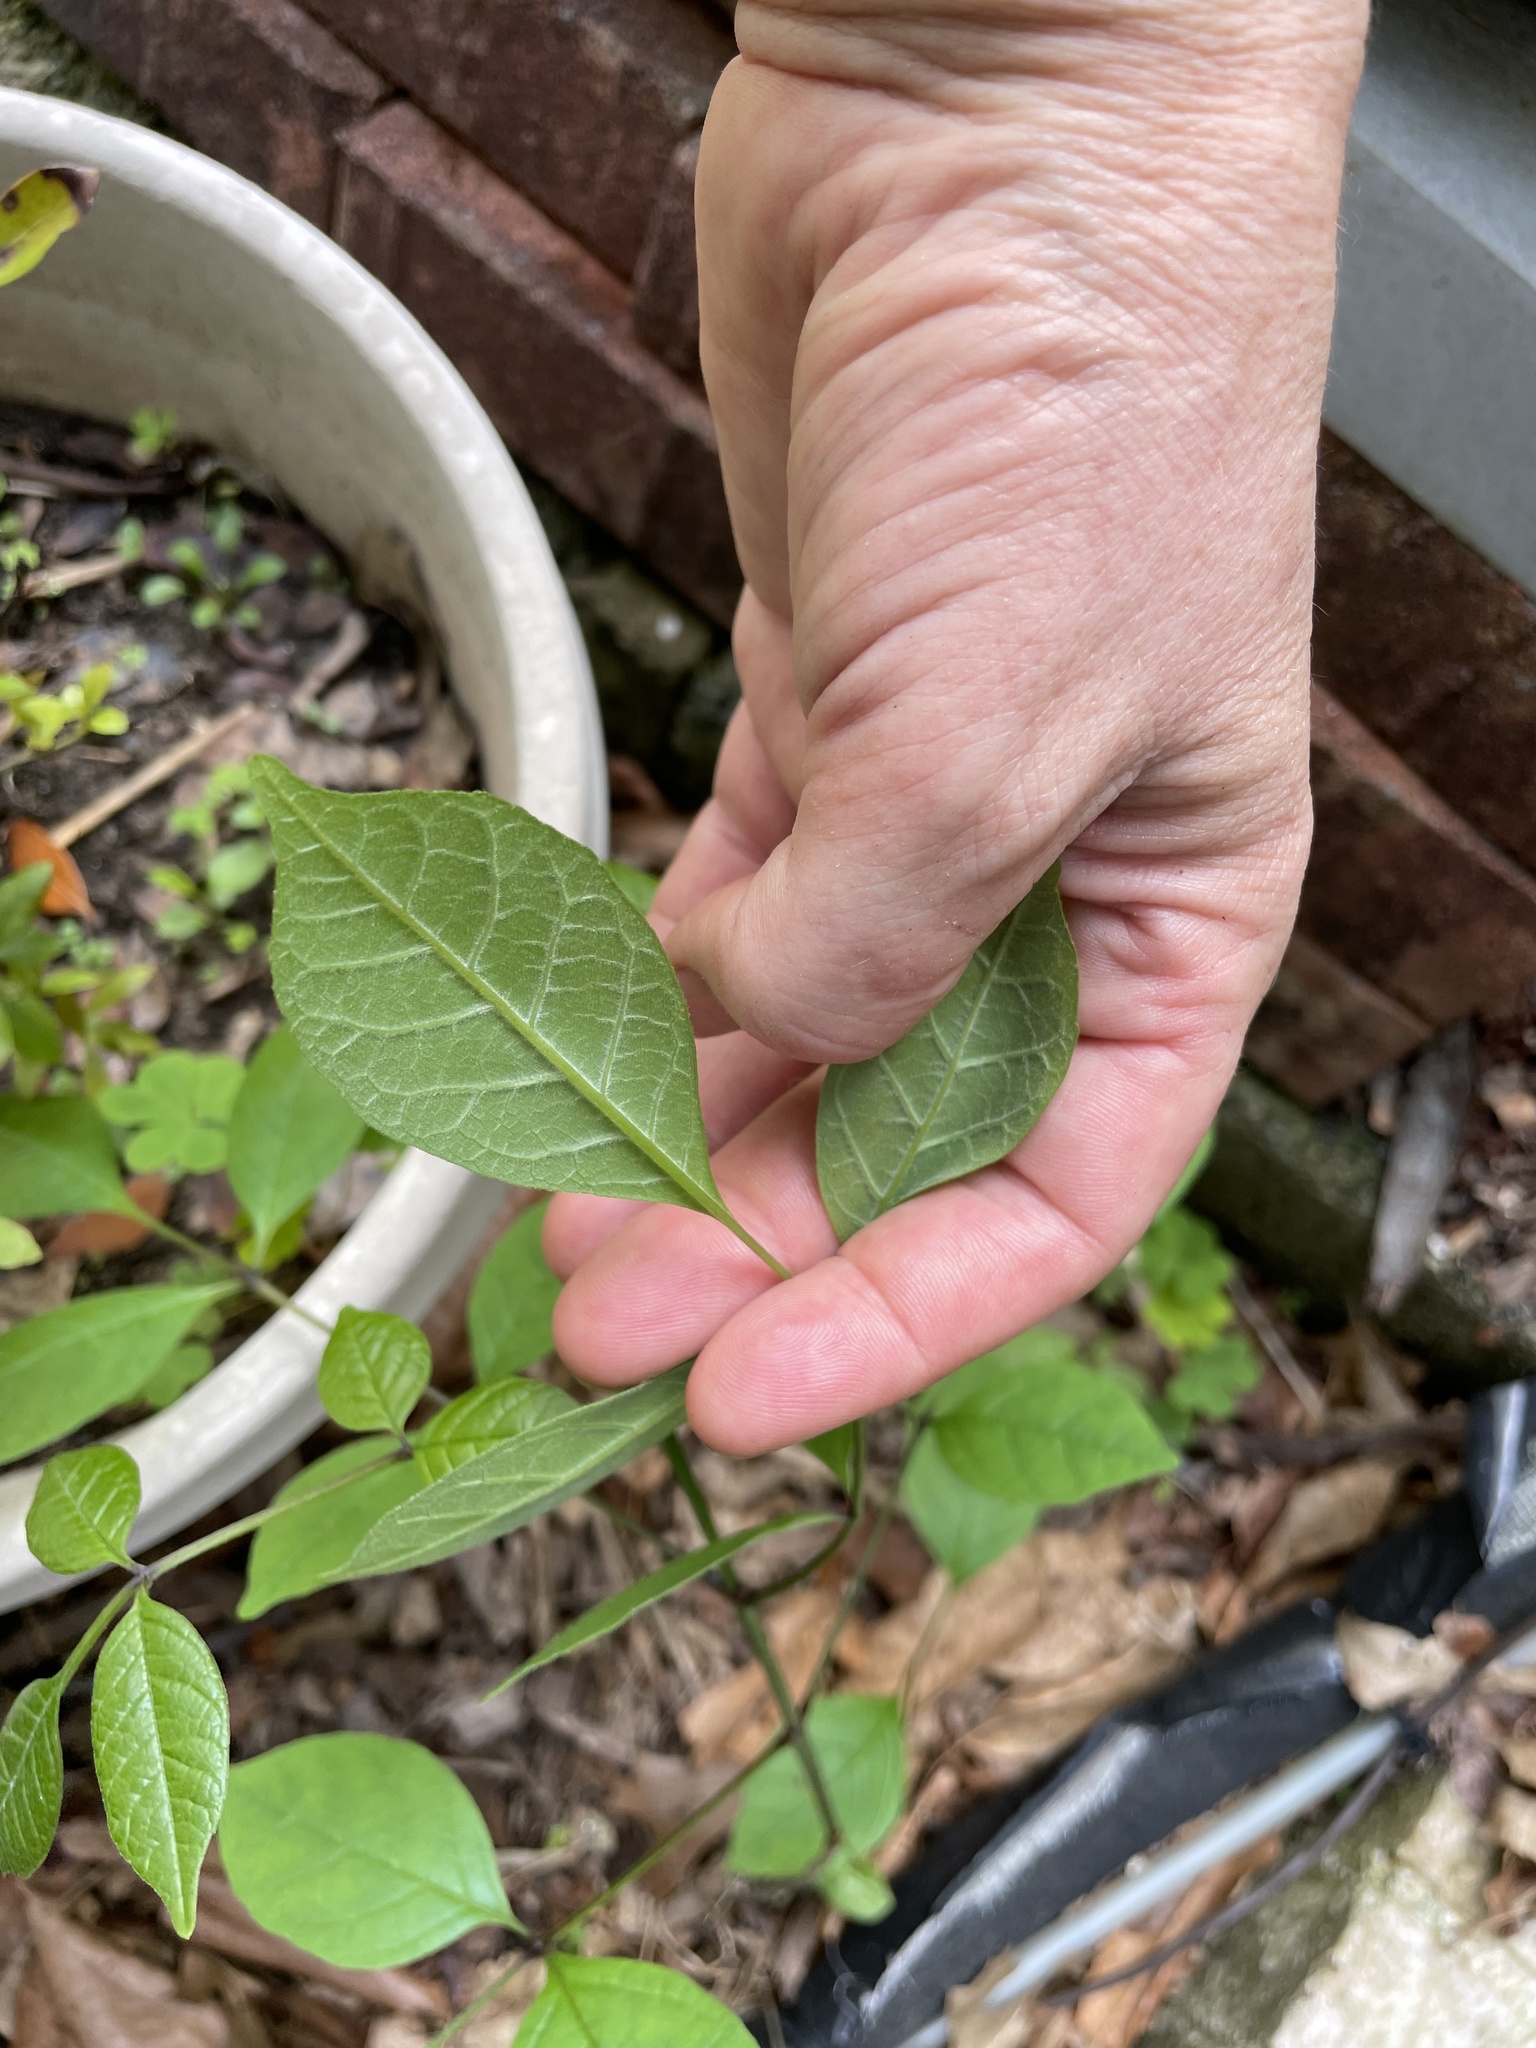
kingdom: Plantae
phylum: Tracheophyta
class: Magnoliopsida
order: Lamiales
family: Oleaceae
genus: Fraxinus
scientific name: Fraxinus pennsylvanica
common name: Green ash
